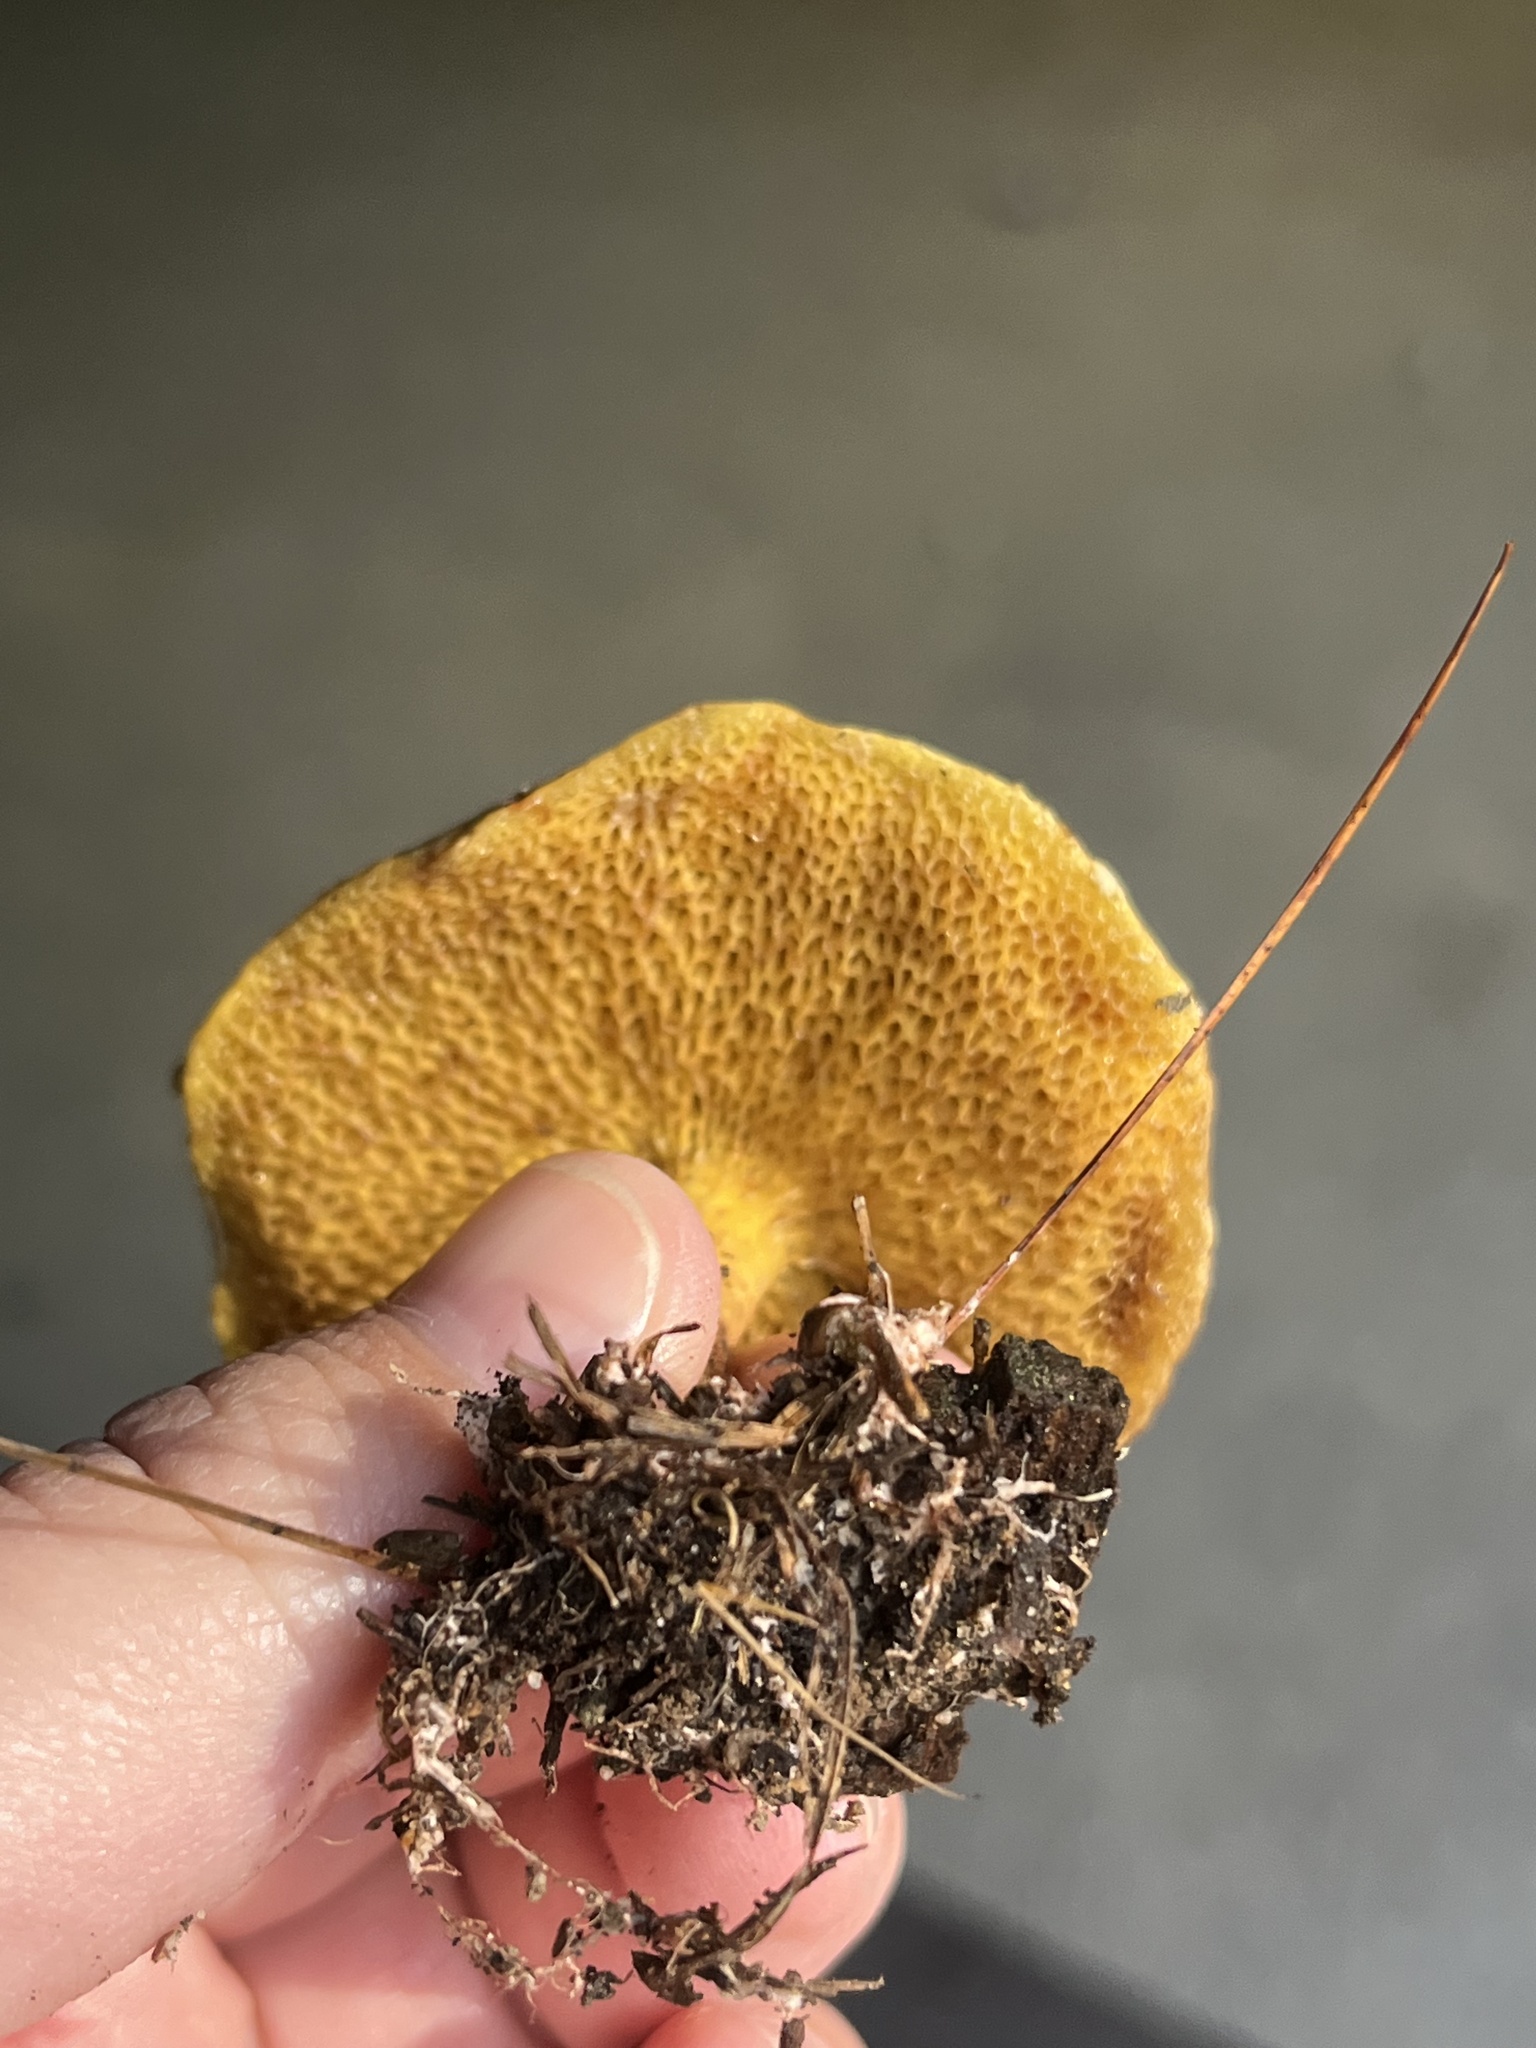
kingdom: Fungi
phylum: Basidiomycota
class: Agaricomycetes
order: Boletales
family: Suillaceae
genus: Suillus
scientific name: Suillus americanus
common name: Chicken fat mushroom
